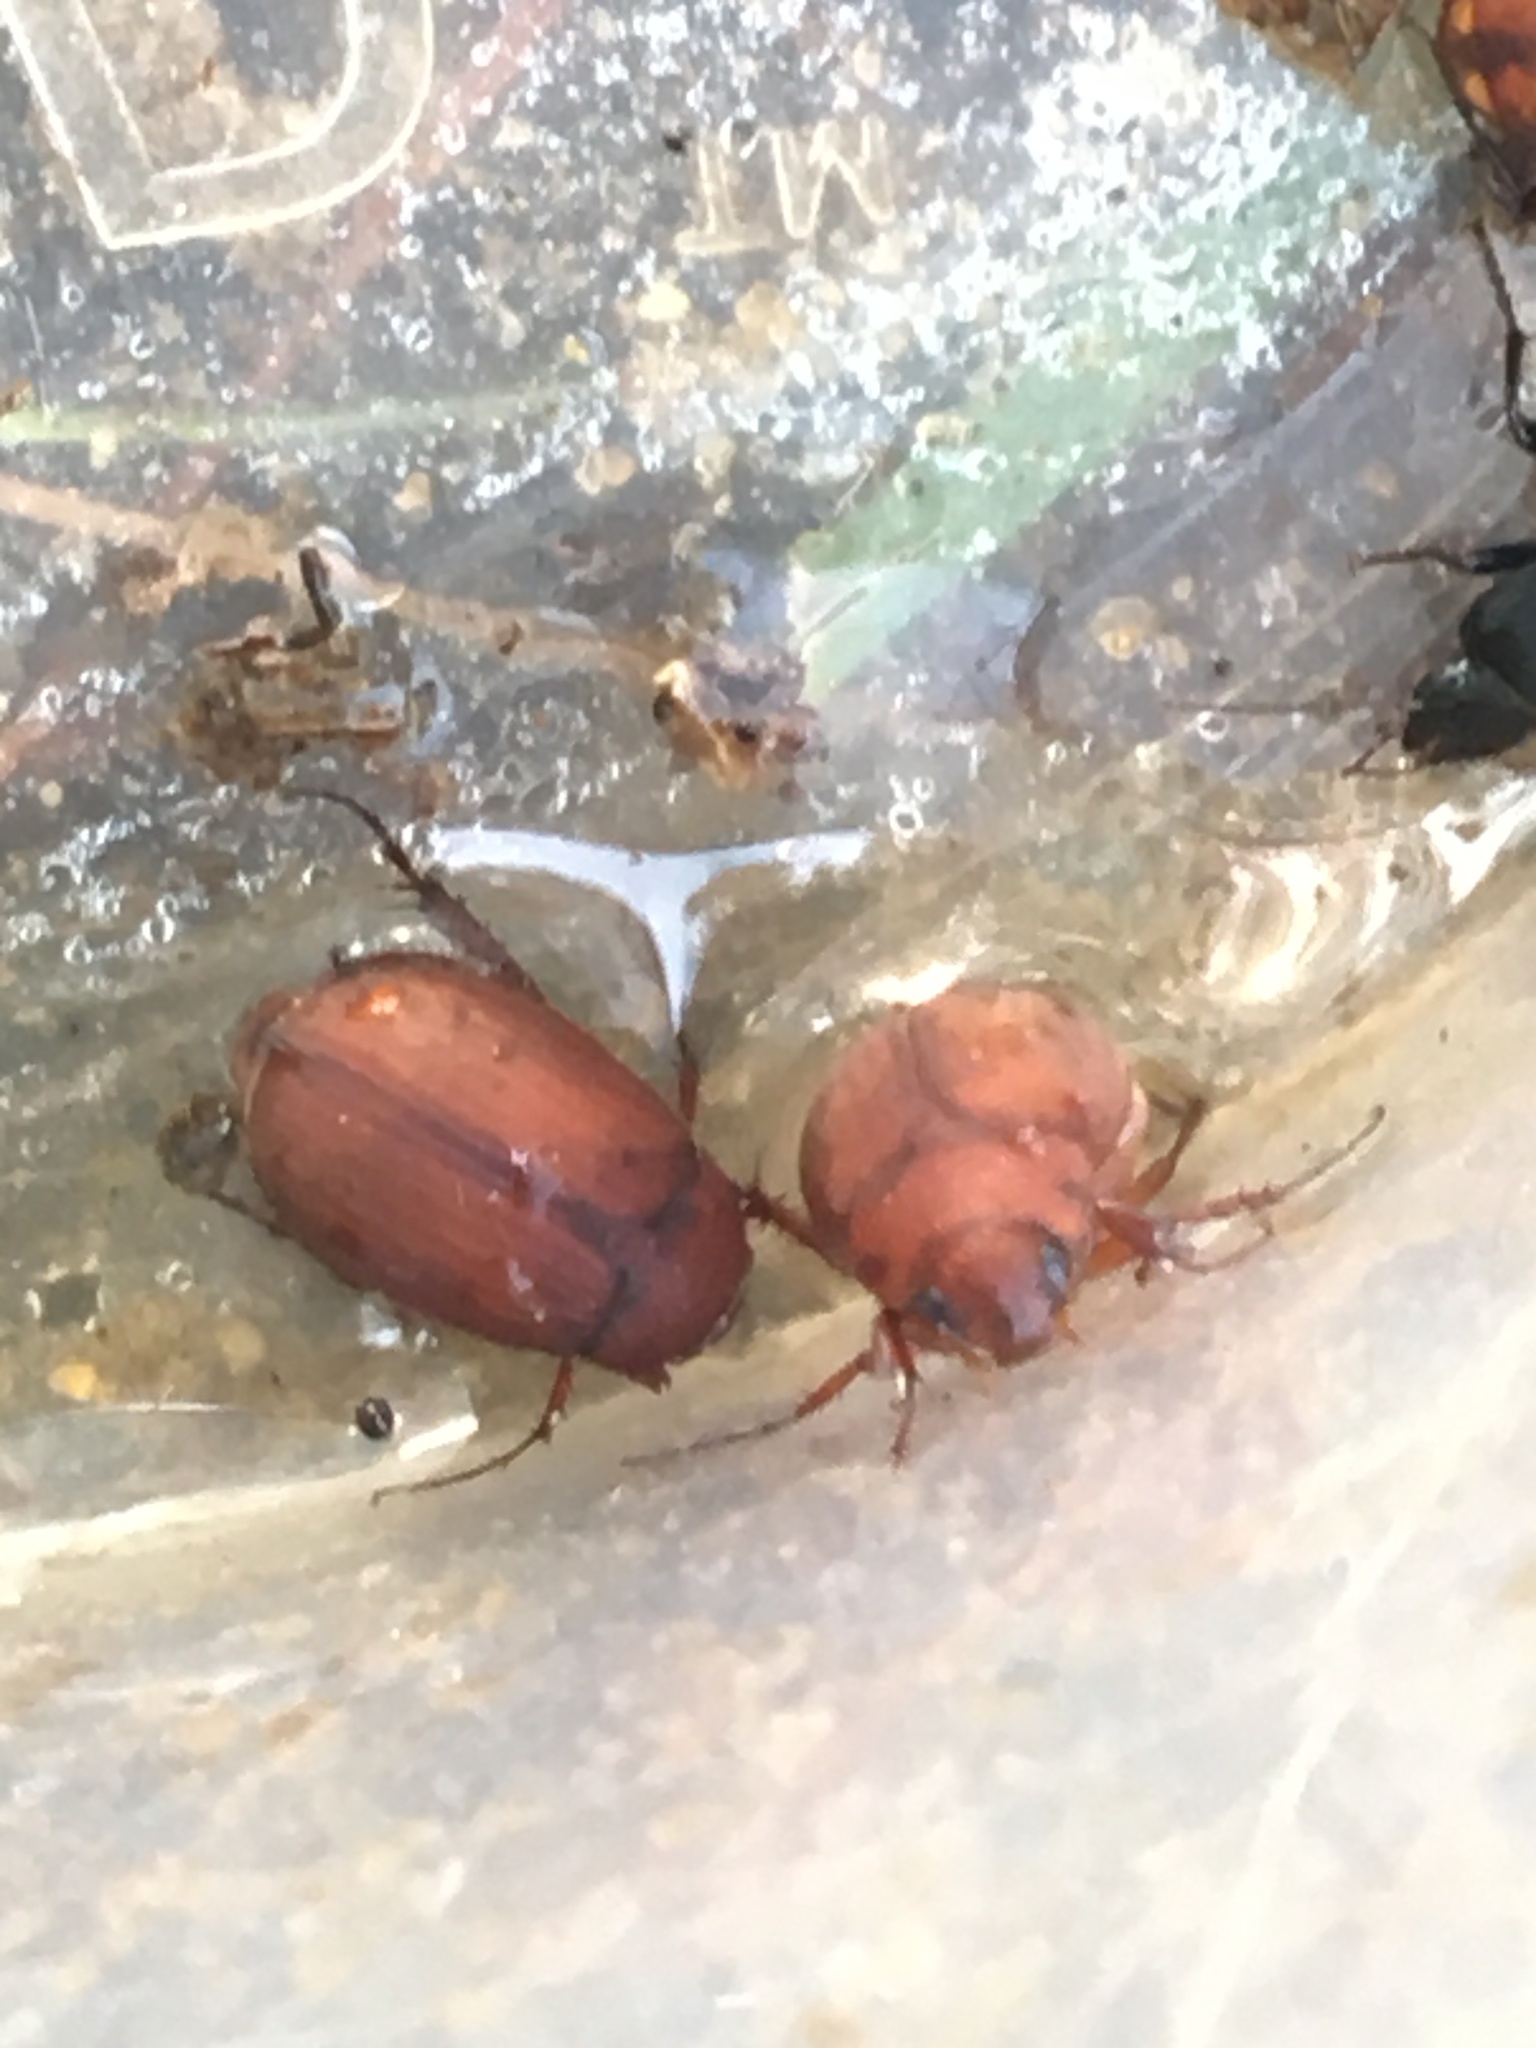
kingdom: Animalia
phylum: Arthropoda
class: Insecta
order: Coleoptera
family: Scarabaeidae
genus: Maladera
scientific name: Maladera formosae
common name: Asiatic garden beetle
